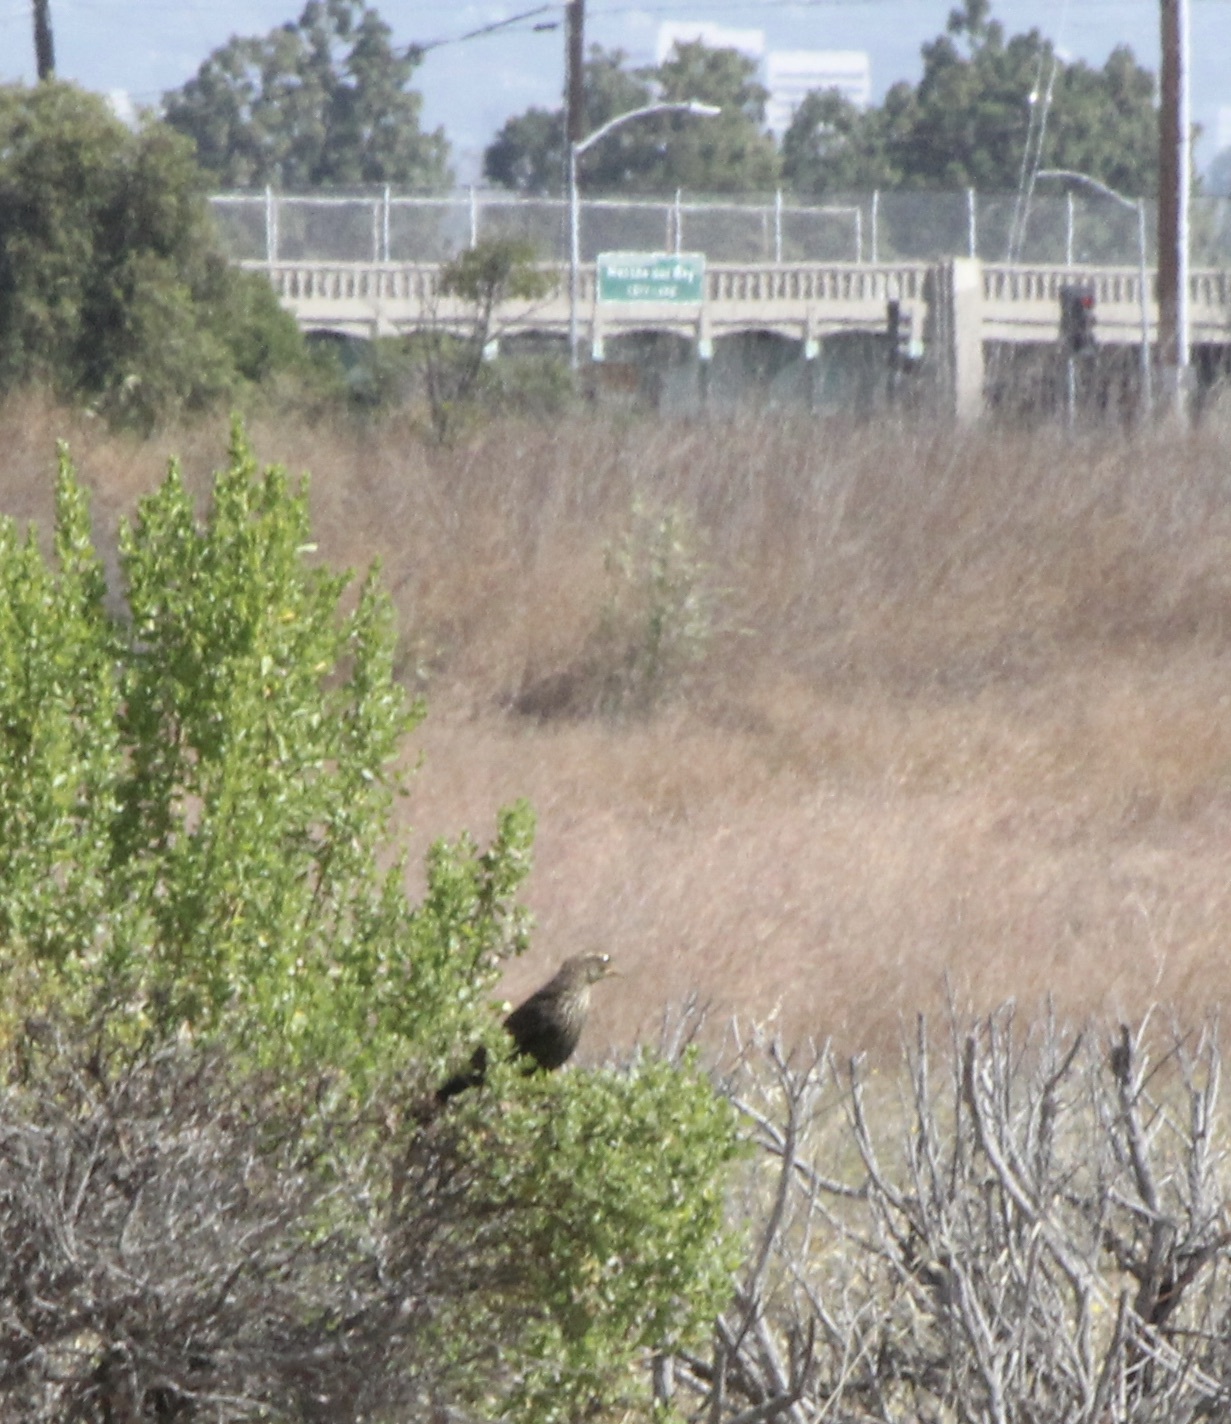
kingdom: Animalia
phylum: Chordata
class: Aves
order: Passeriformes
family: Icteridae
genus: Agelaius
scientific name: Agelaius phoeniceus
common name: Red-winged blackbird
